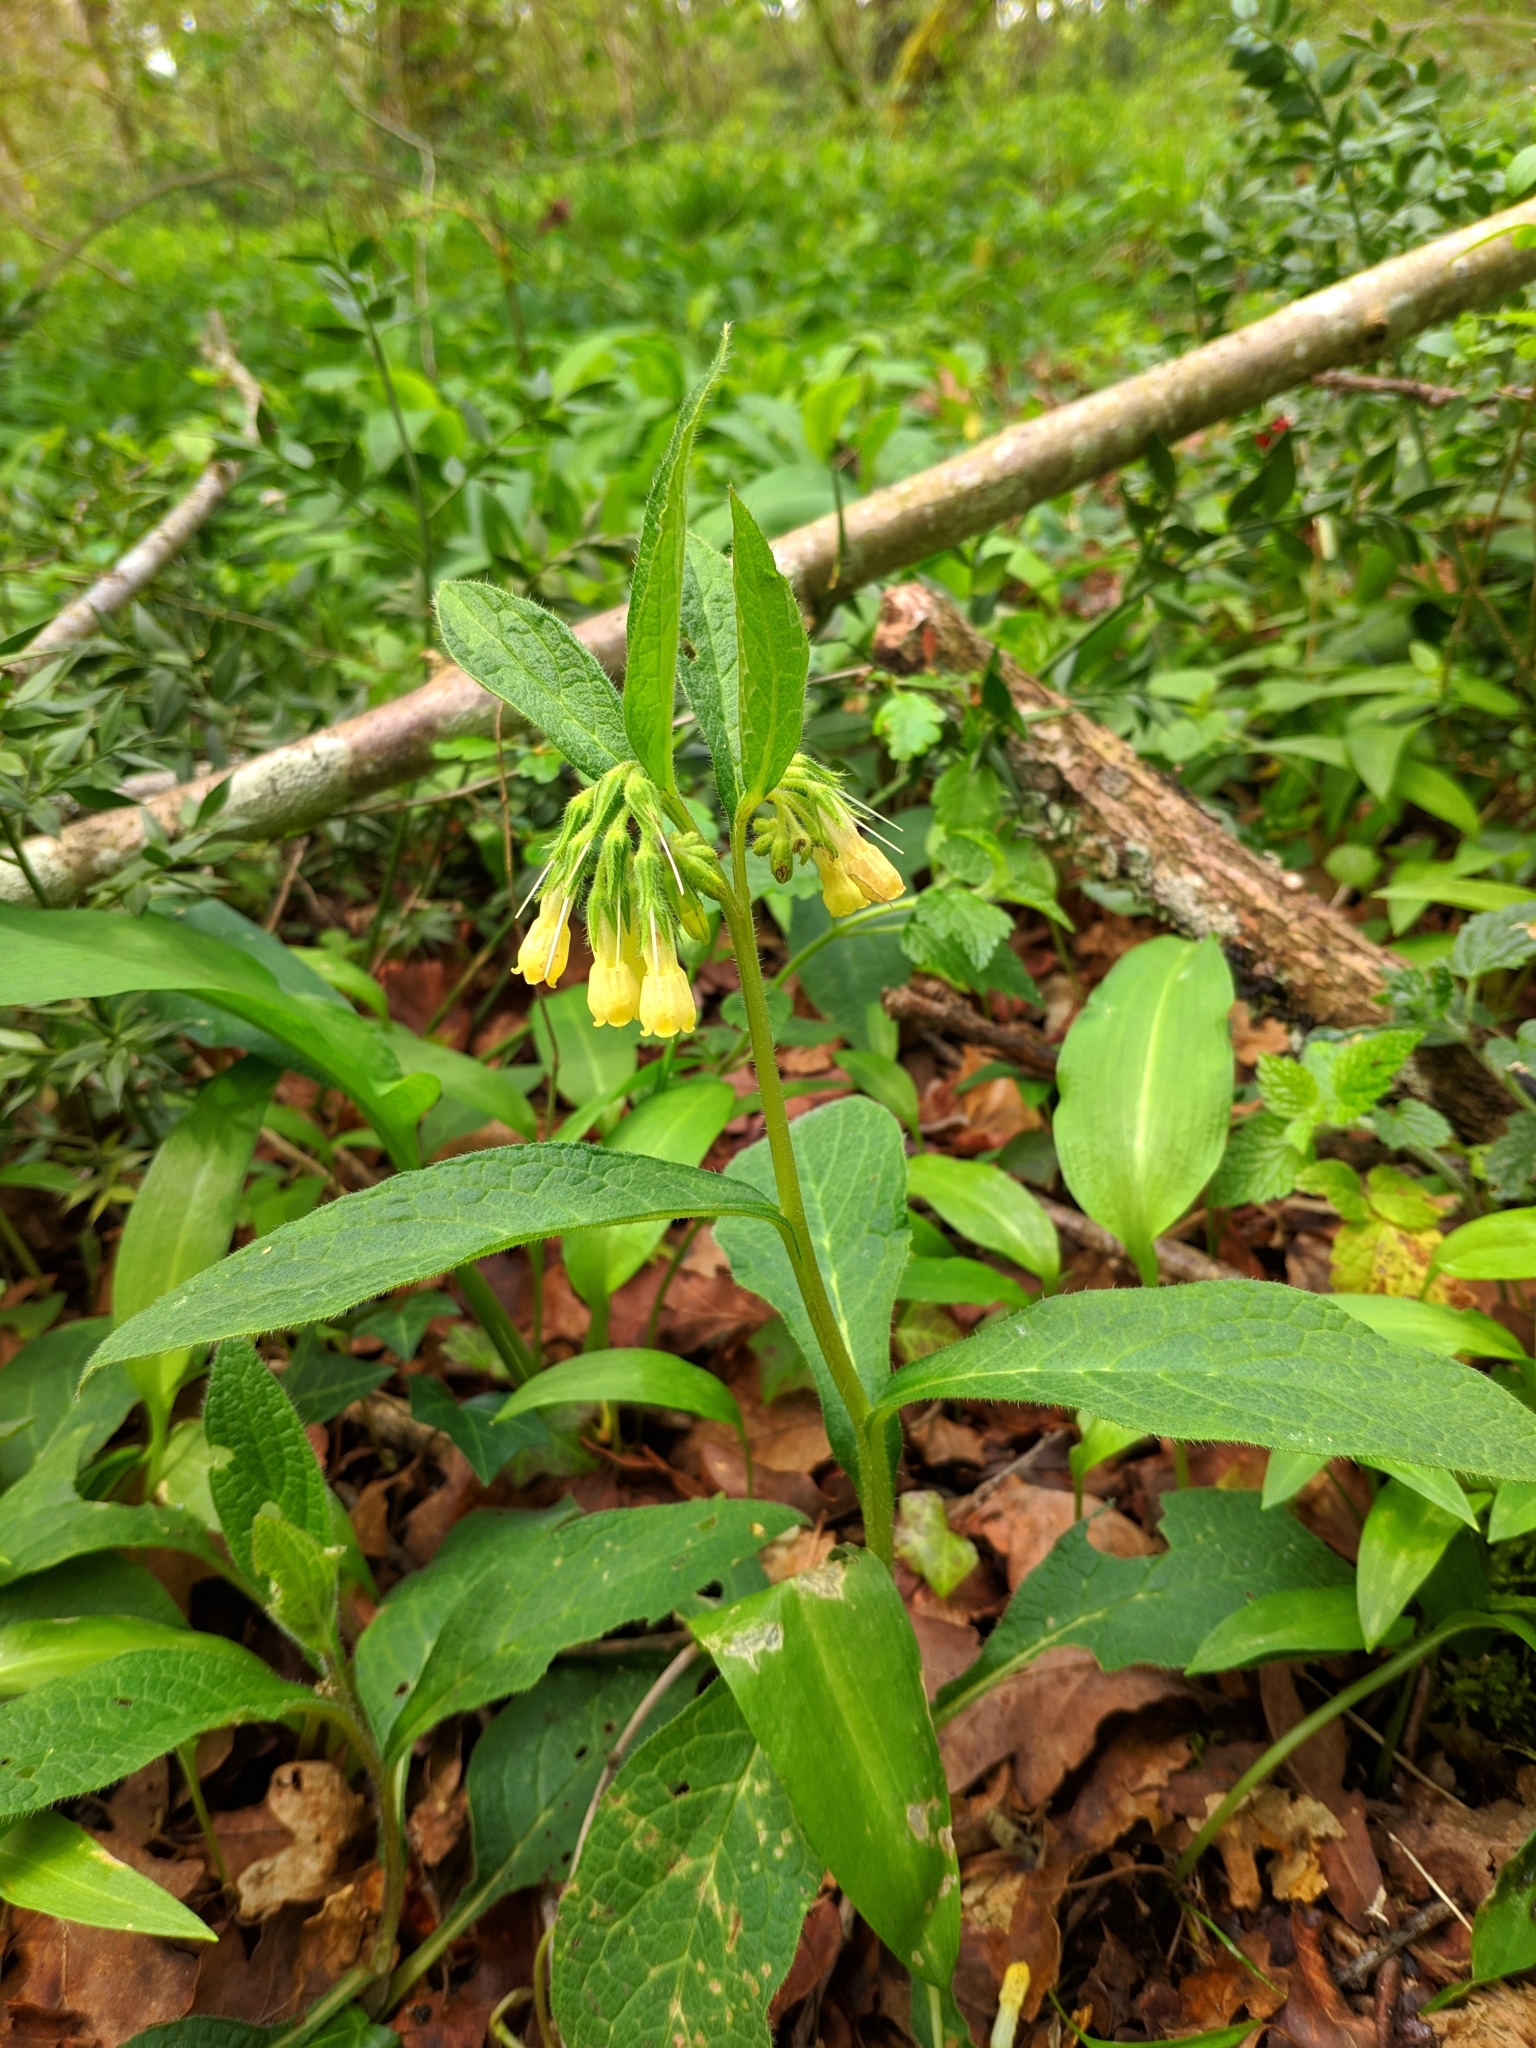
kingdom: Plantae
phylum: Tracheophyta
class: Magnoliopsida
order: Boraginales
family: Boraginaceae
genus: Symphytum
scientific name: Symphytum tuberosum
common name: Tuberous comfrey
